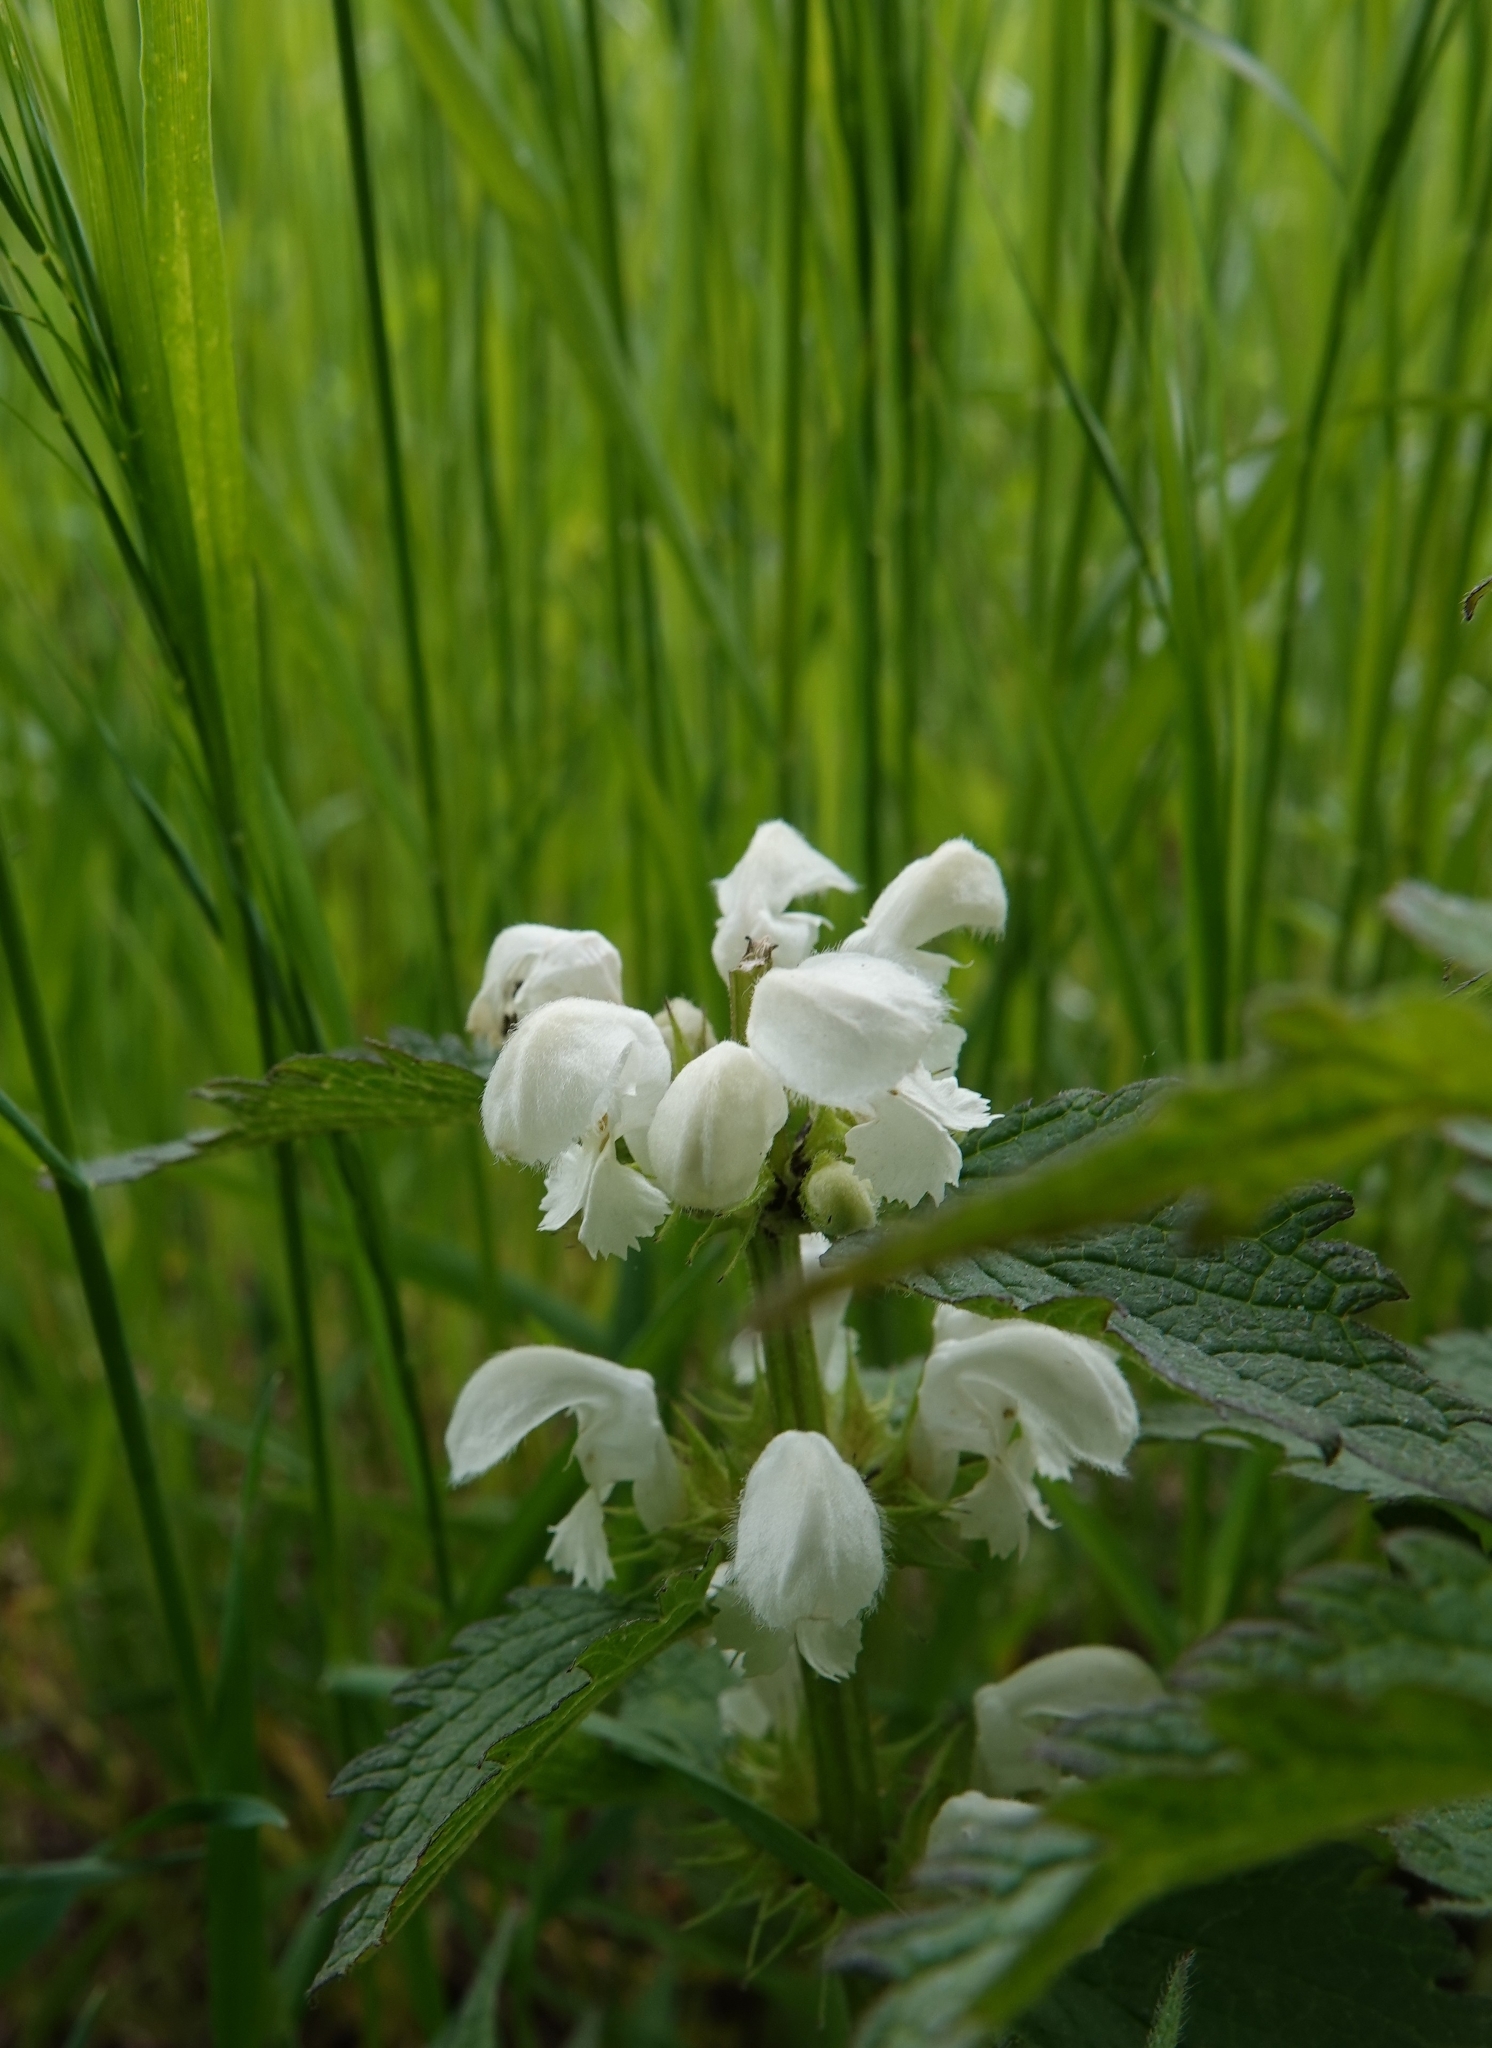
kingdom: Plantae
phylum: Tracheophyta
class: Magnoliopsida
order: Lamiales
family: Lamiaceae
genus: Lamium
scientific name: Lamium album
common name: White dead-nettle
